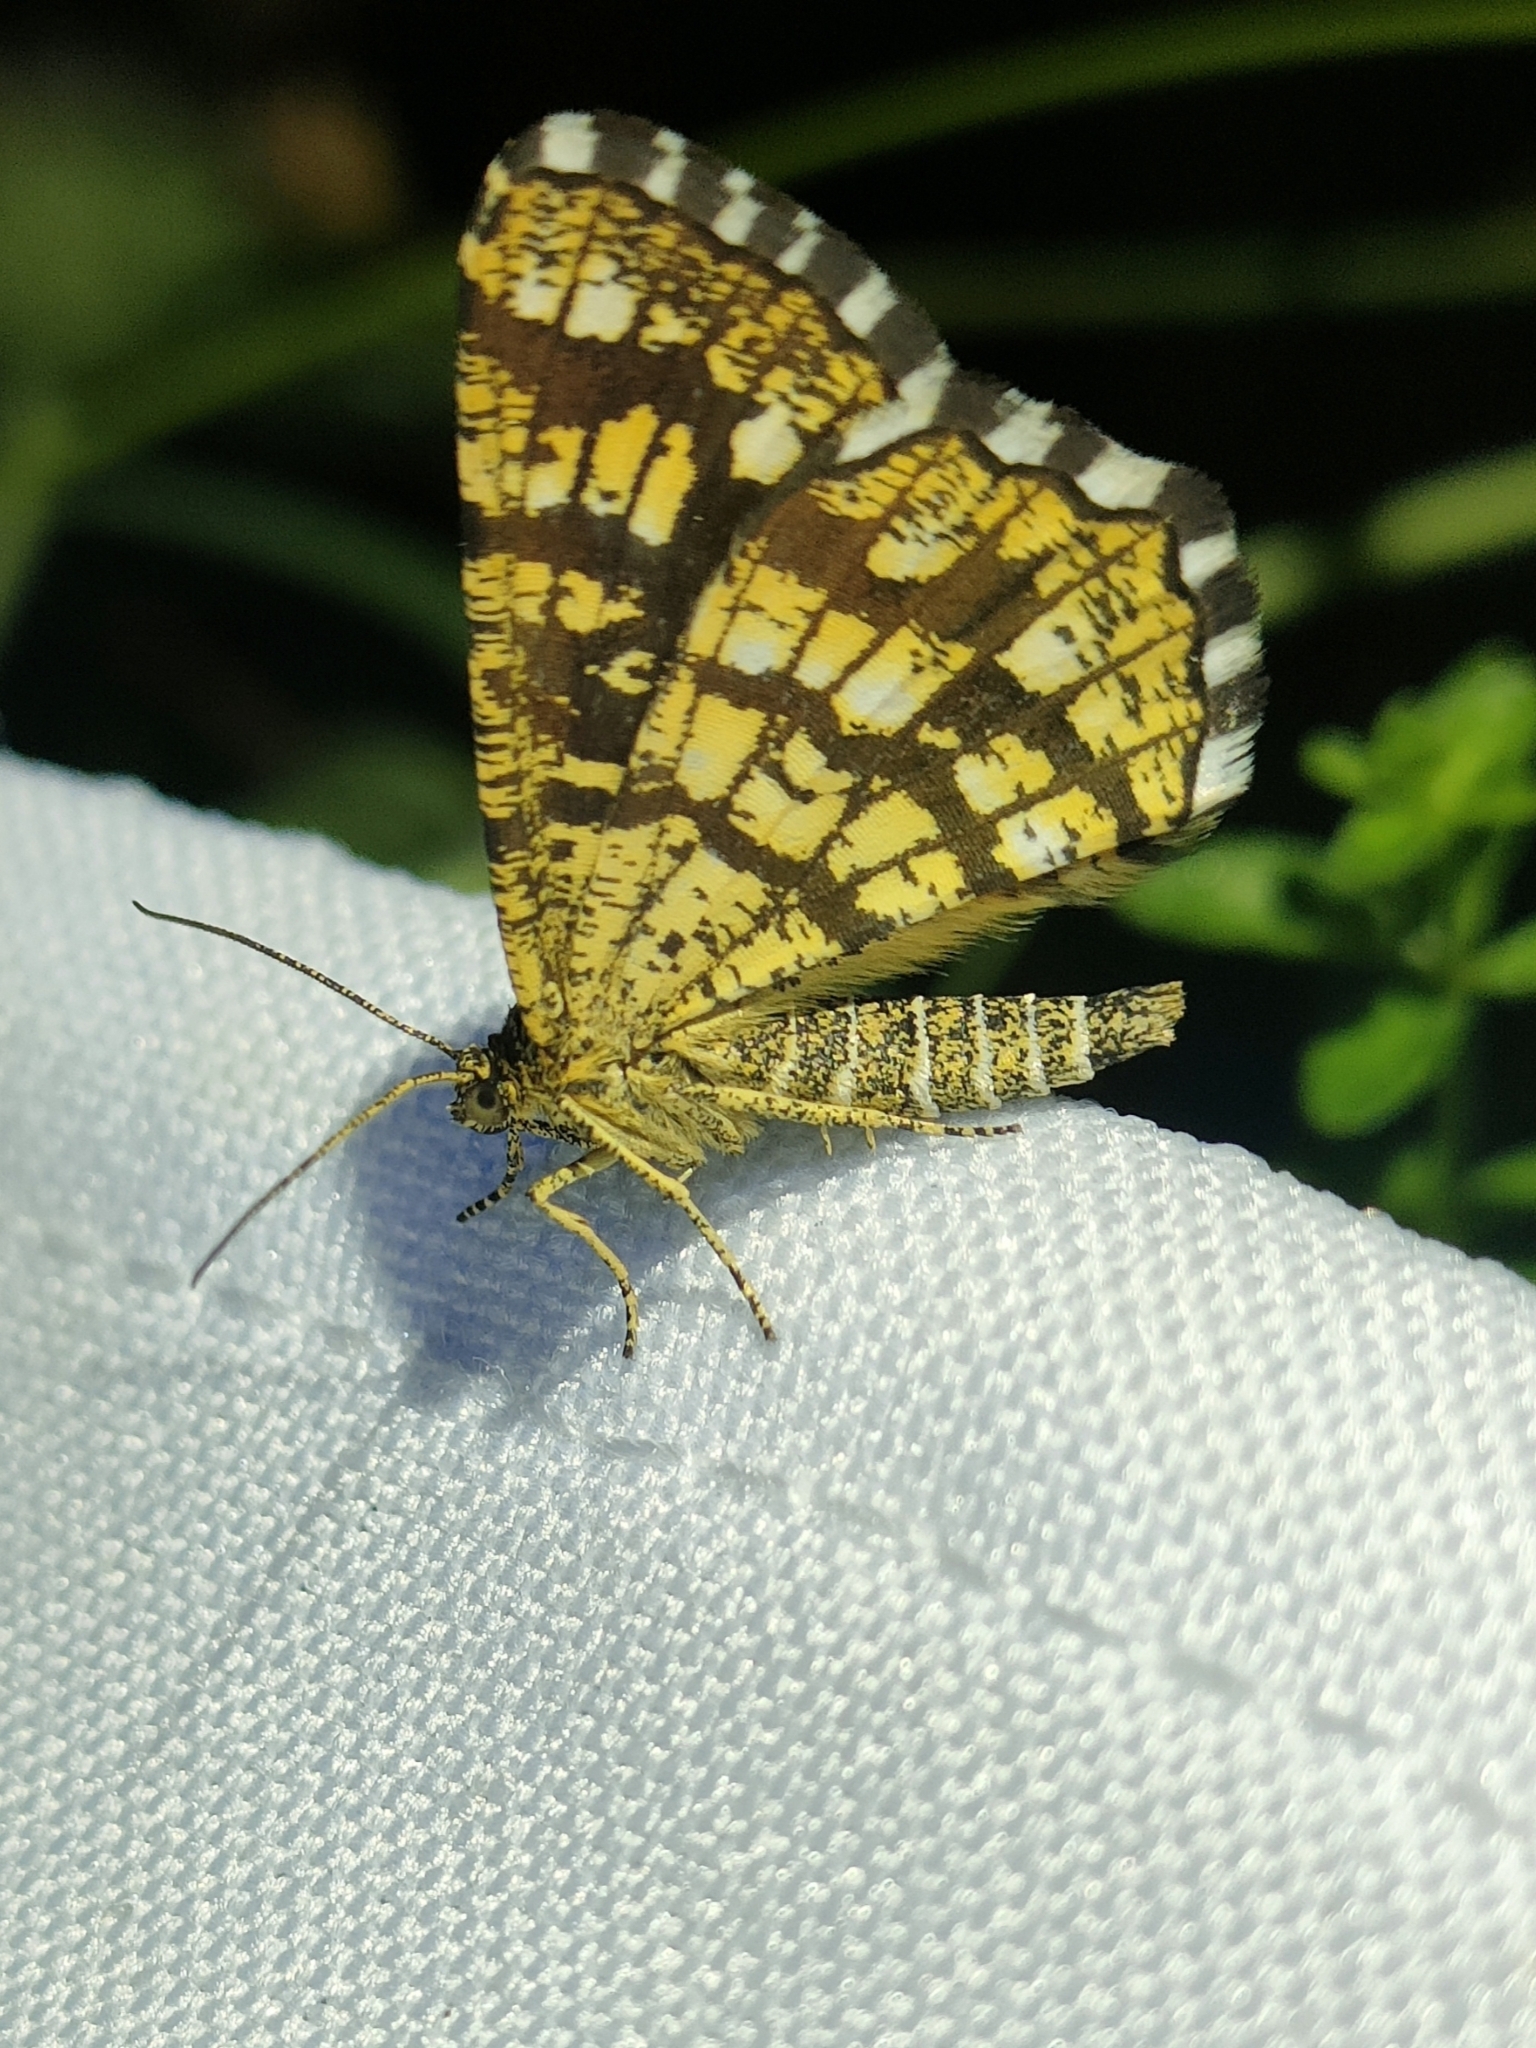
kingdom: Animalia
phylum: Arthropoda
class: Insecta
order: Lepidoptera
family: Geometridae
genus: Chiasmia
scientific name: Chiasmia clathrata
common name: Latticed heath
